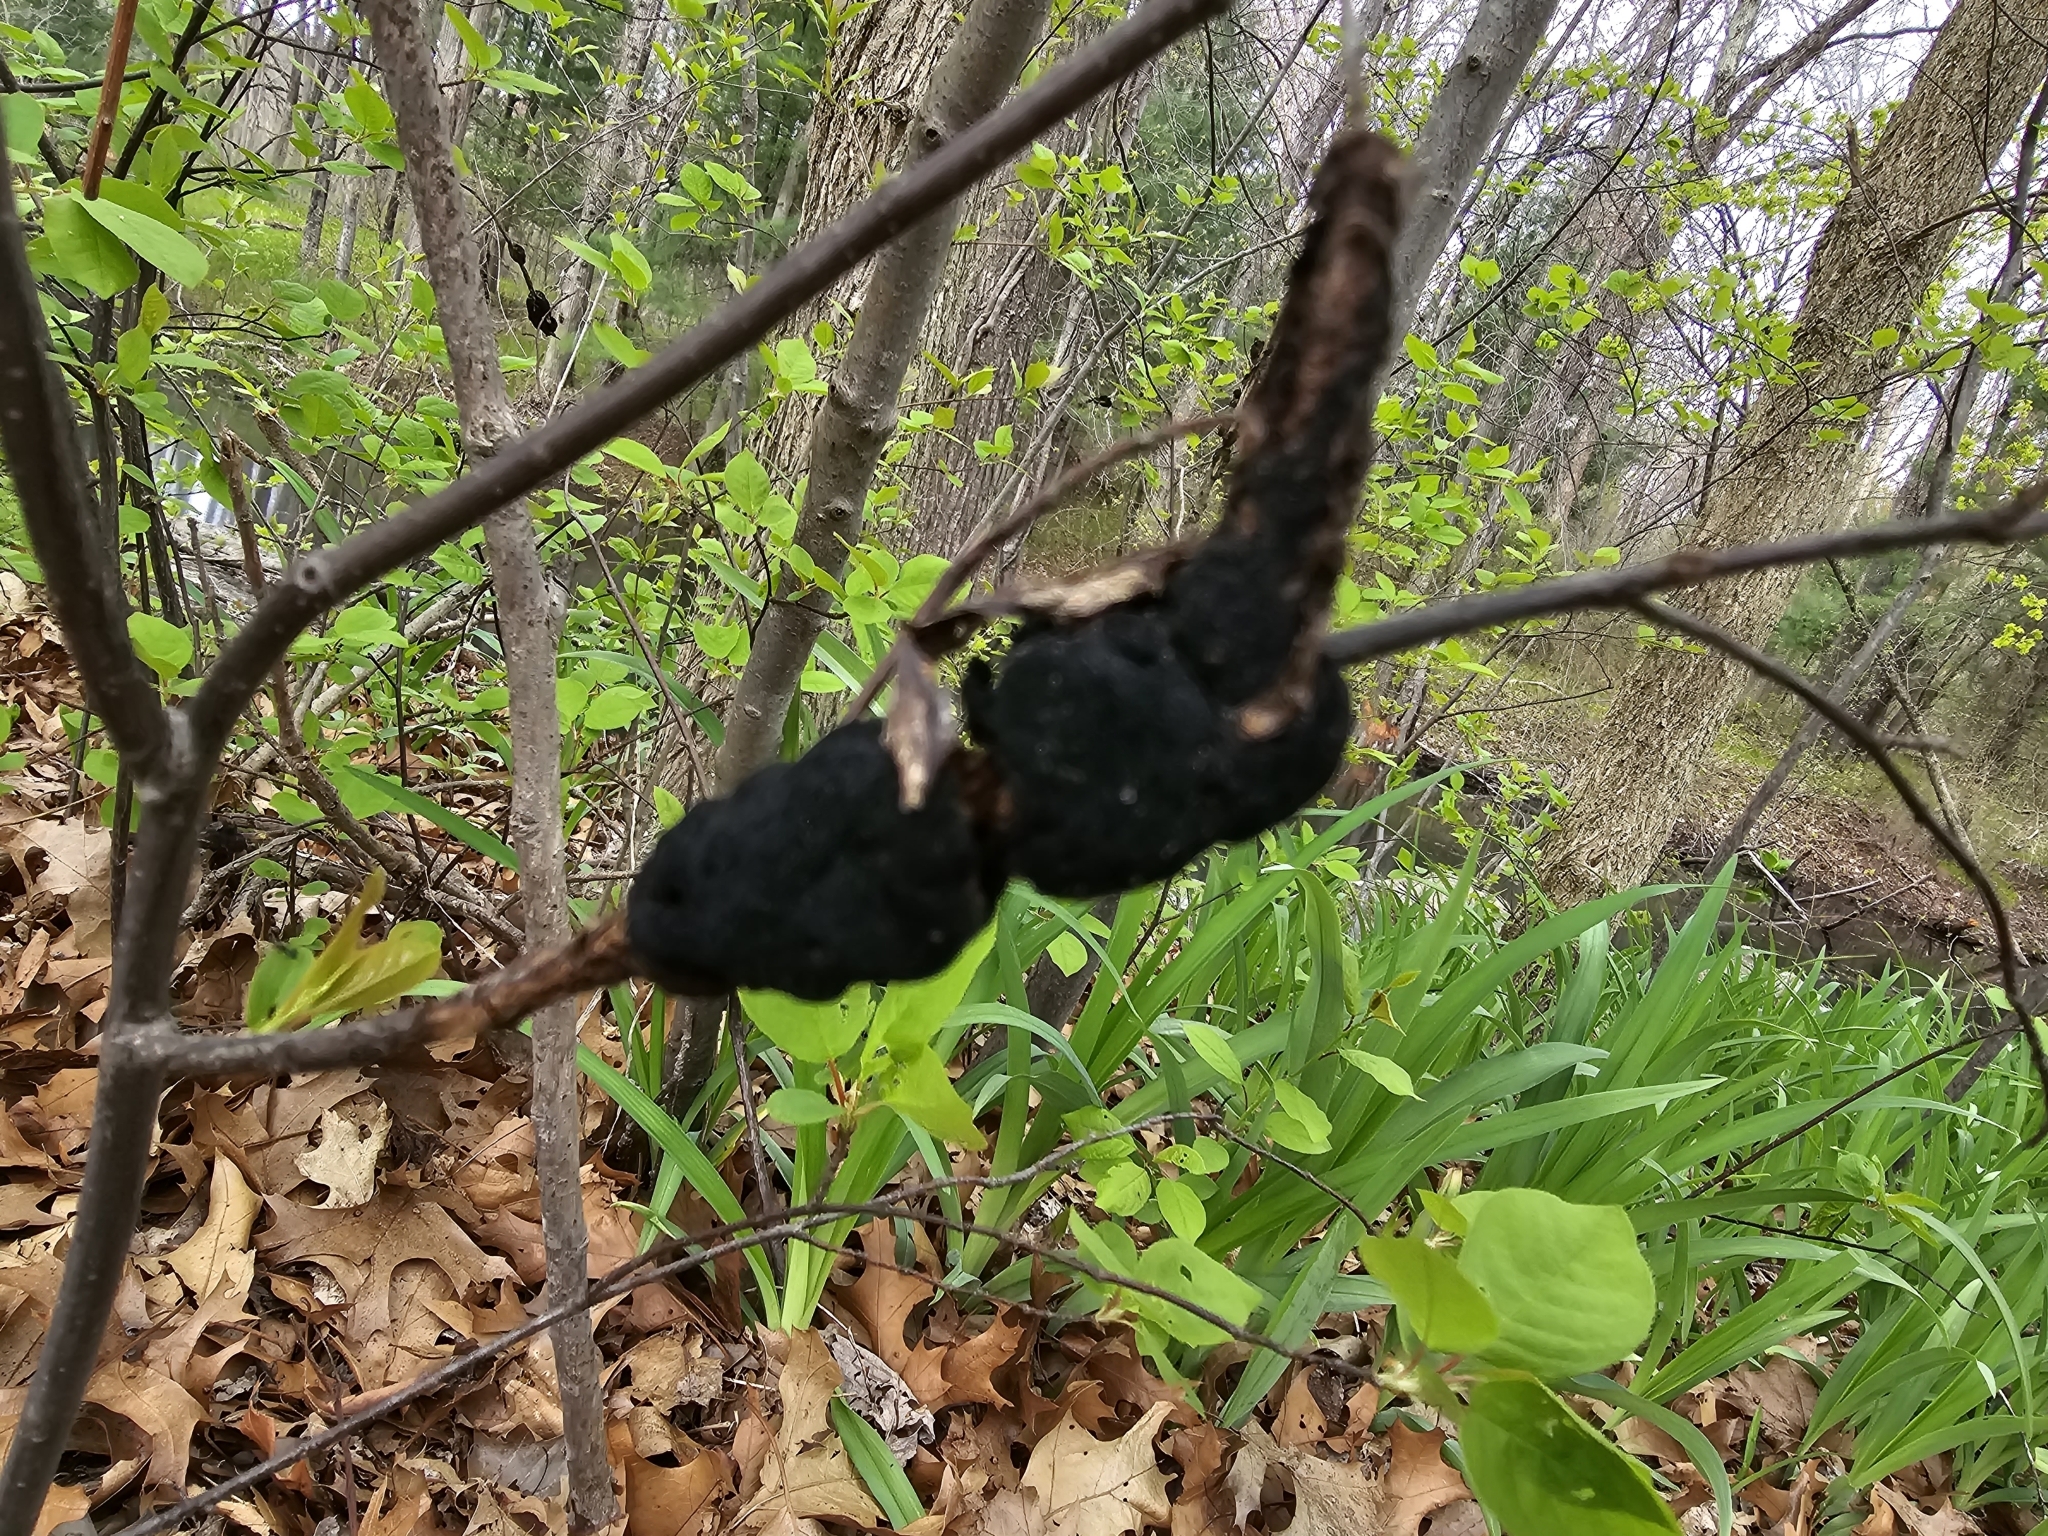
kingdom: Fungi
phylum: Ascomycota
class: Dothideomycetes
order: Venturiales
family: Venturiaceae
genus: Apiosporina
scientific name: Apiosporina morbosa
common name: Black knot
